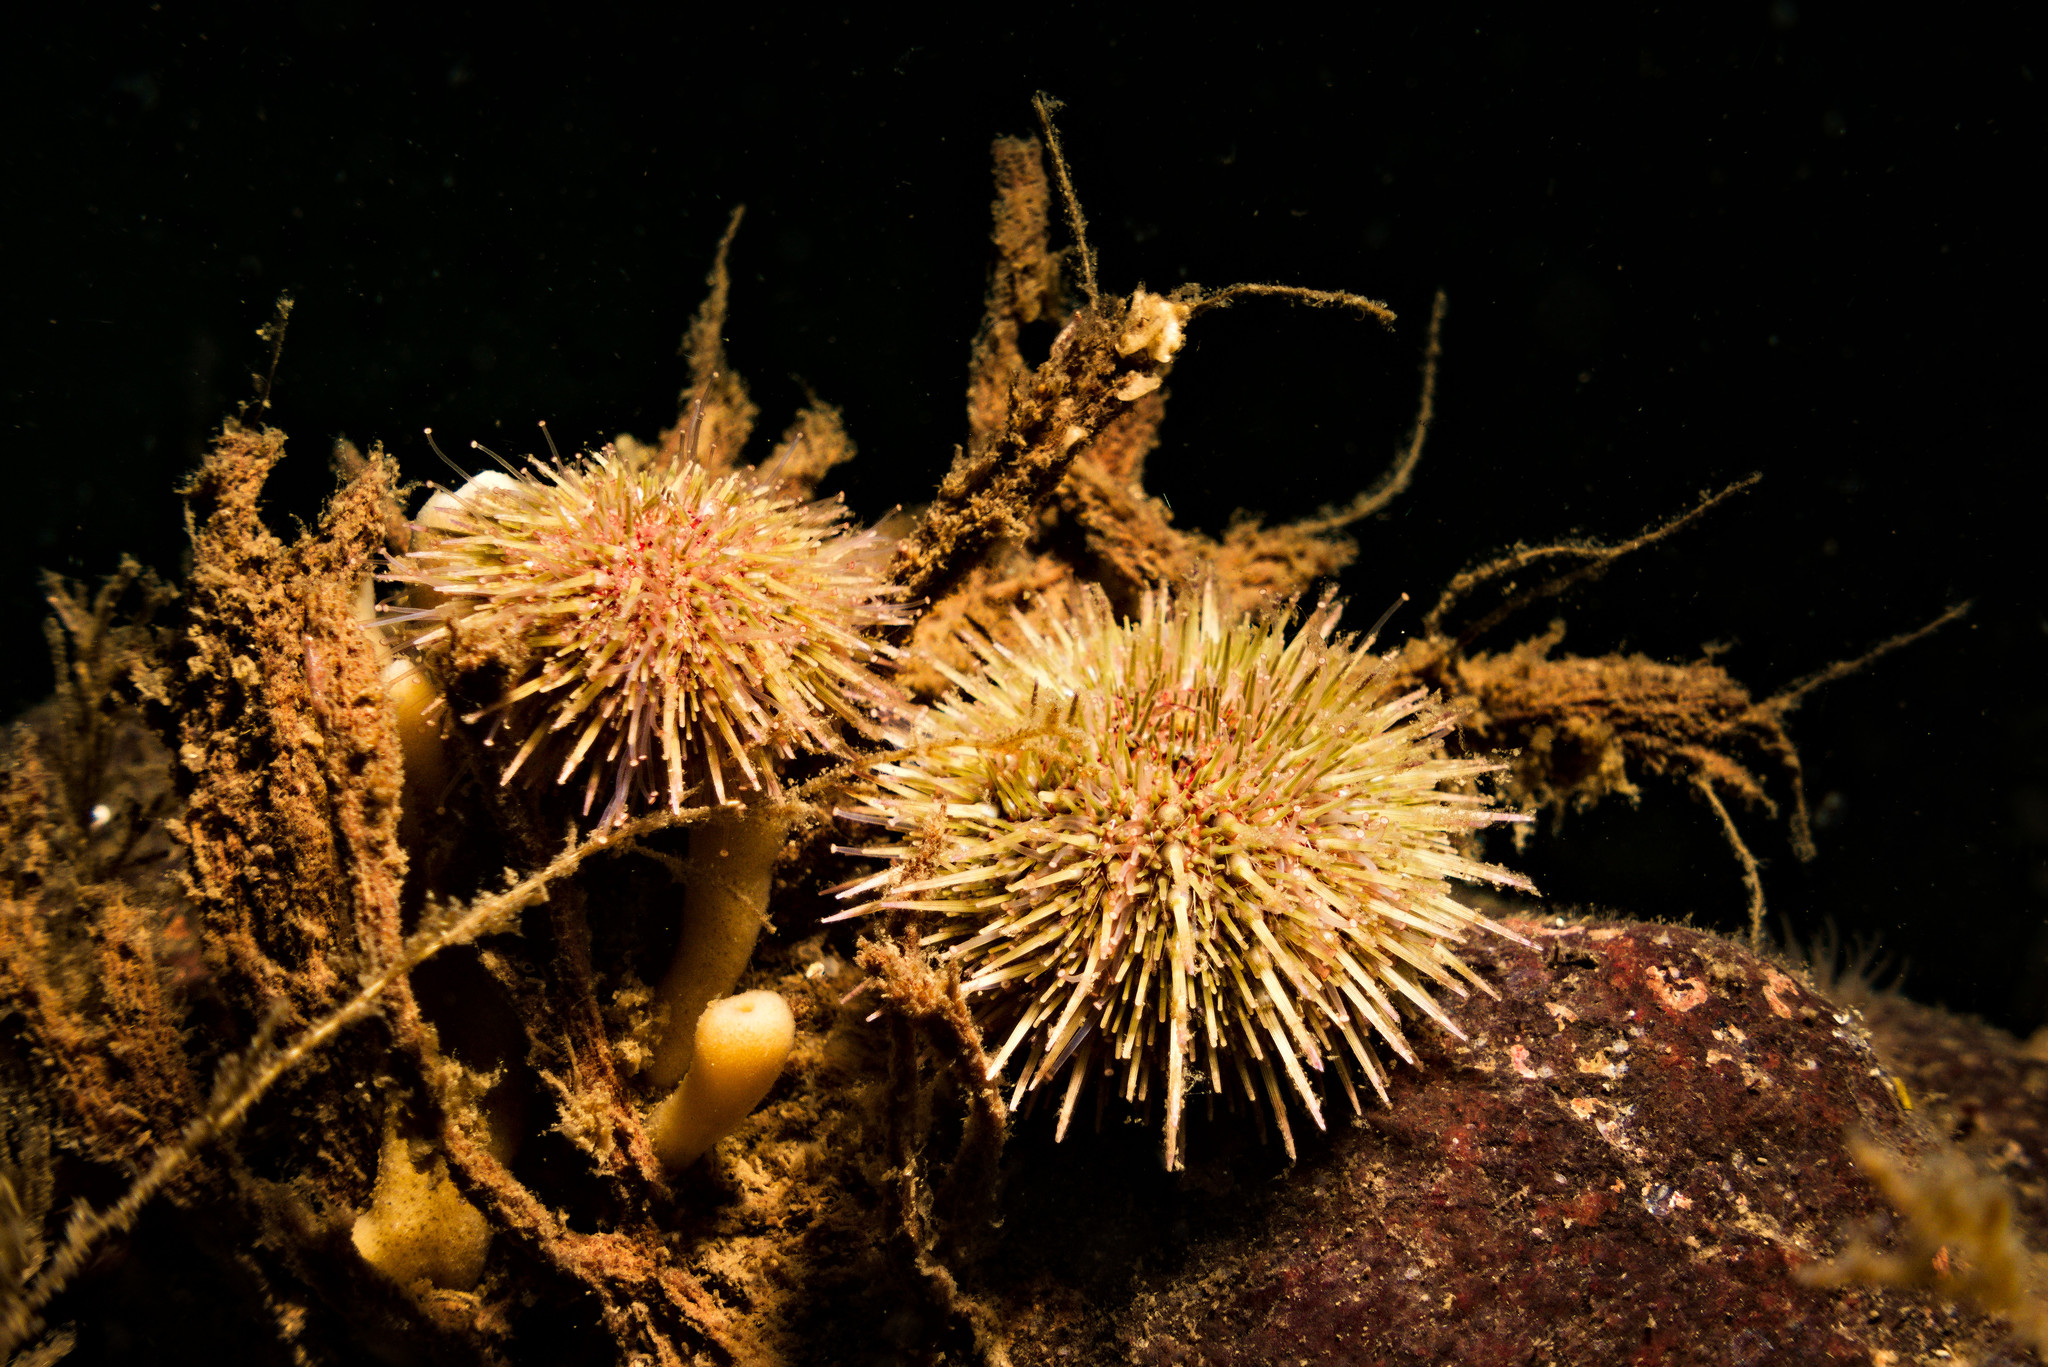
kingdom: Animalia
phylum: Echinodermata
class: Echinoidea
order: Camarodonta
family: Parechinidae
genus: Psammechinus
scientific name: Psammechinus miliaris
